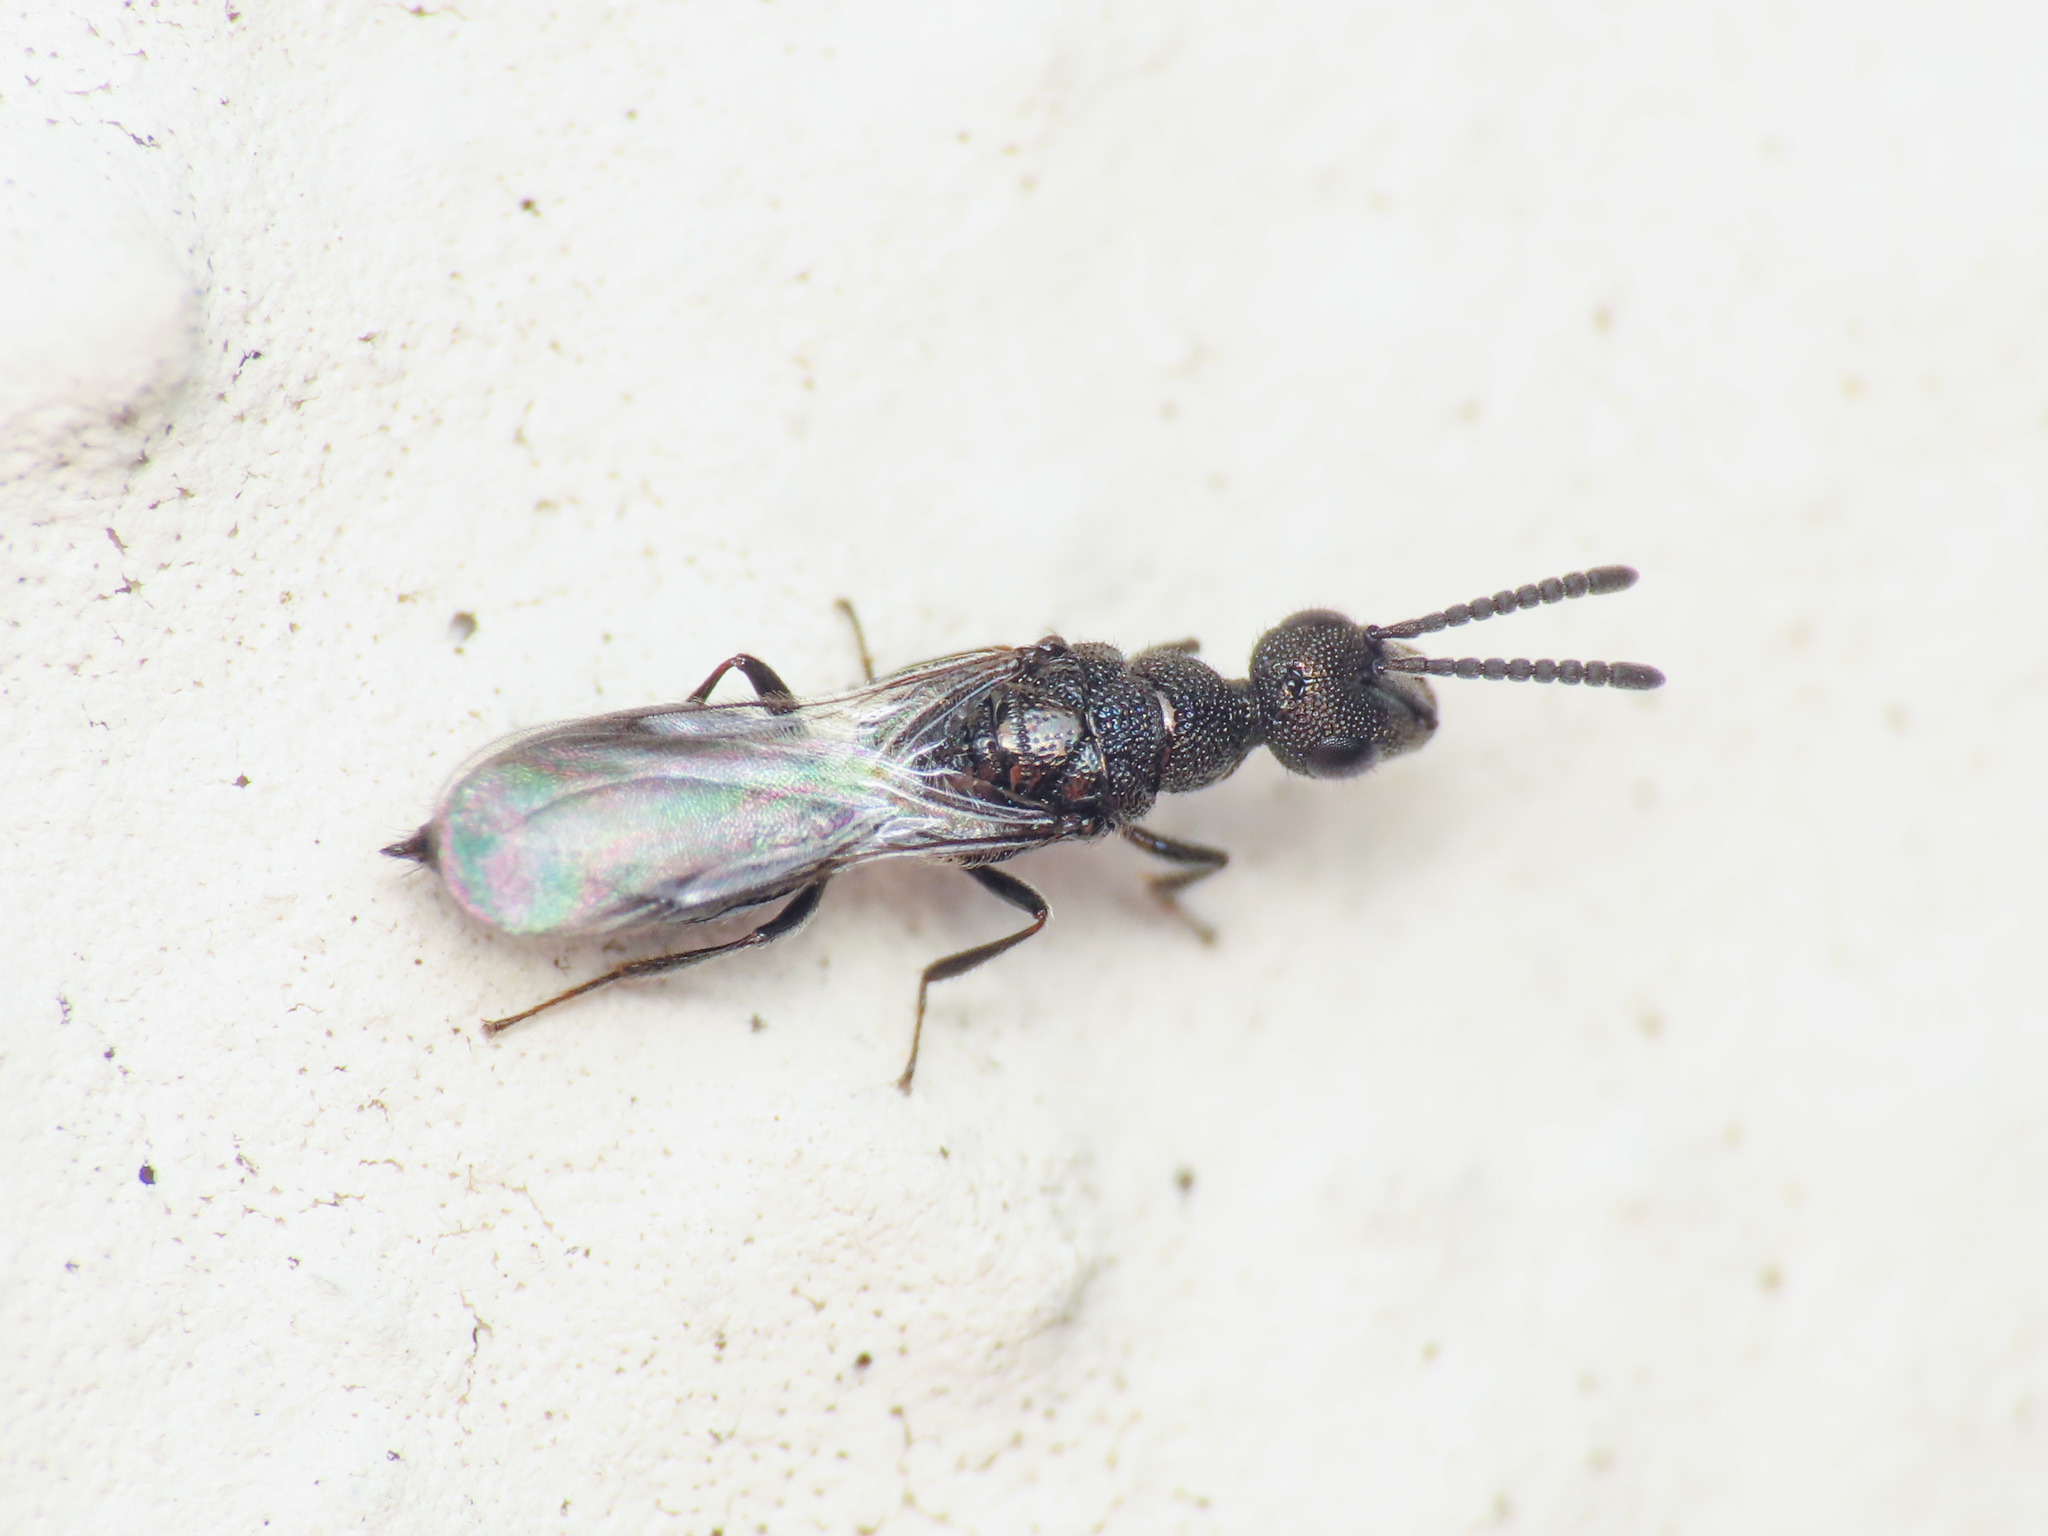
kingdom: Animalia
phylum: Arthropoda
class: Insecta
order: Hymenoptera
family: Pteromalidae
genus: Spalangia
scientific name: Spalangia rugulosa
